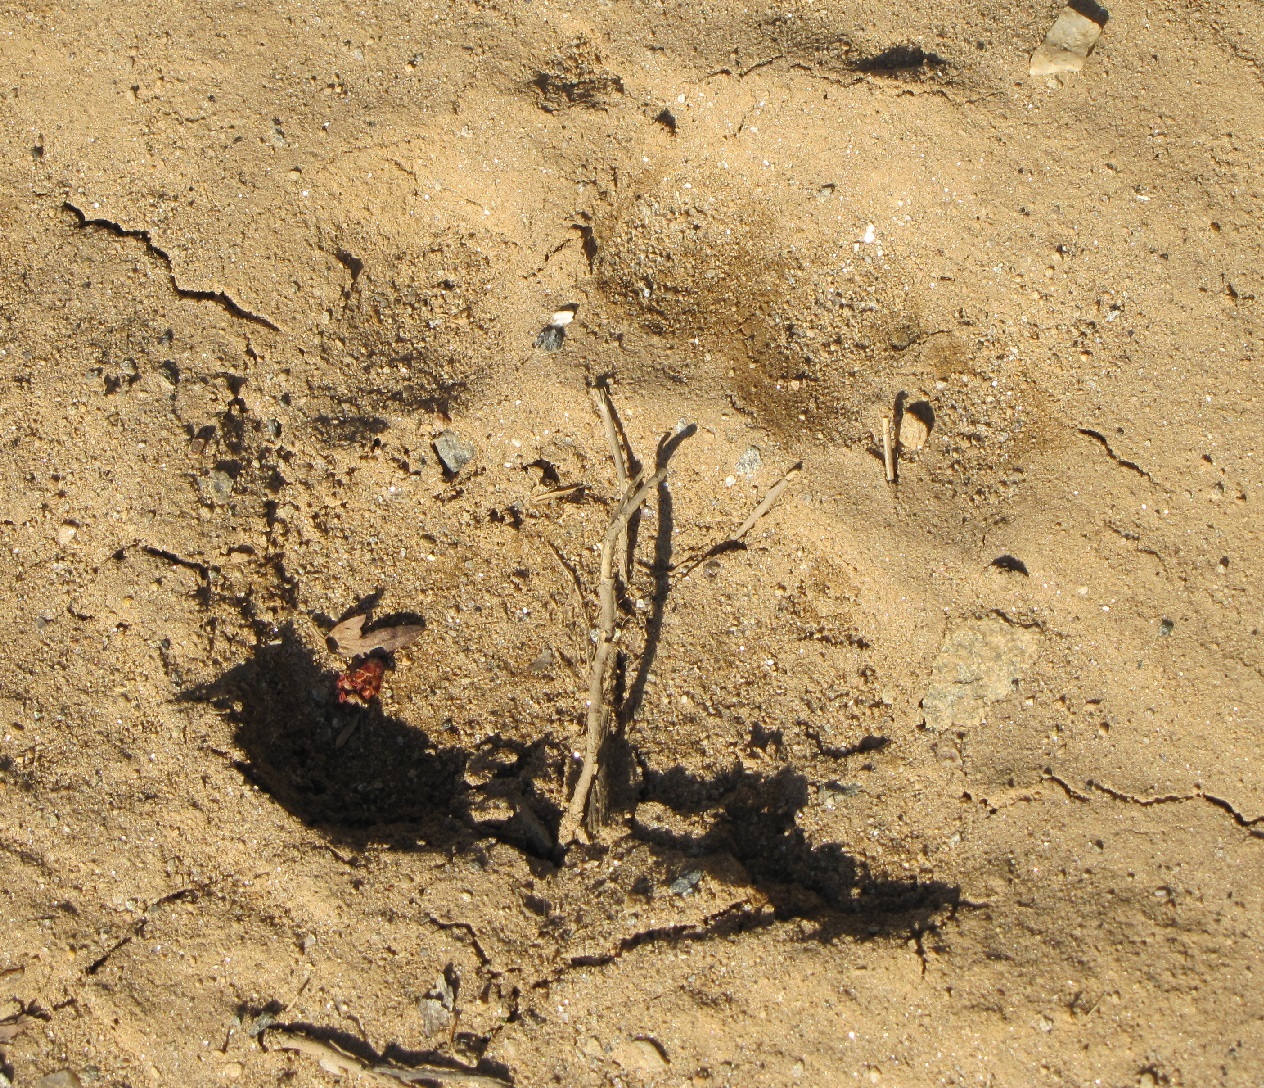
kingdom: Animalia
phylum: Chordata
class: Mammalia
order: Carnivora
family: Ursidae
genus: Ursus
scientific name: Ursus americanus
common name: American black bear
